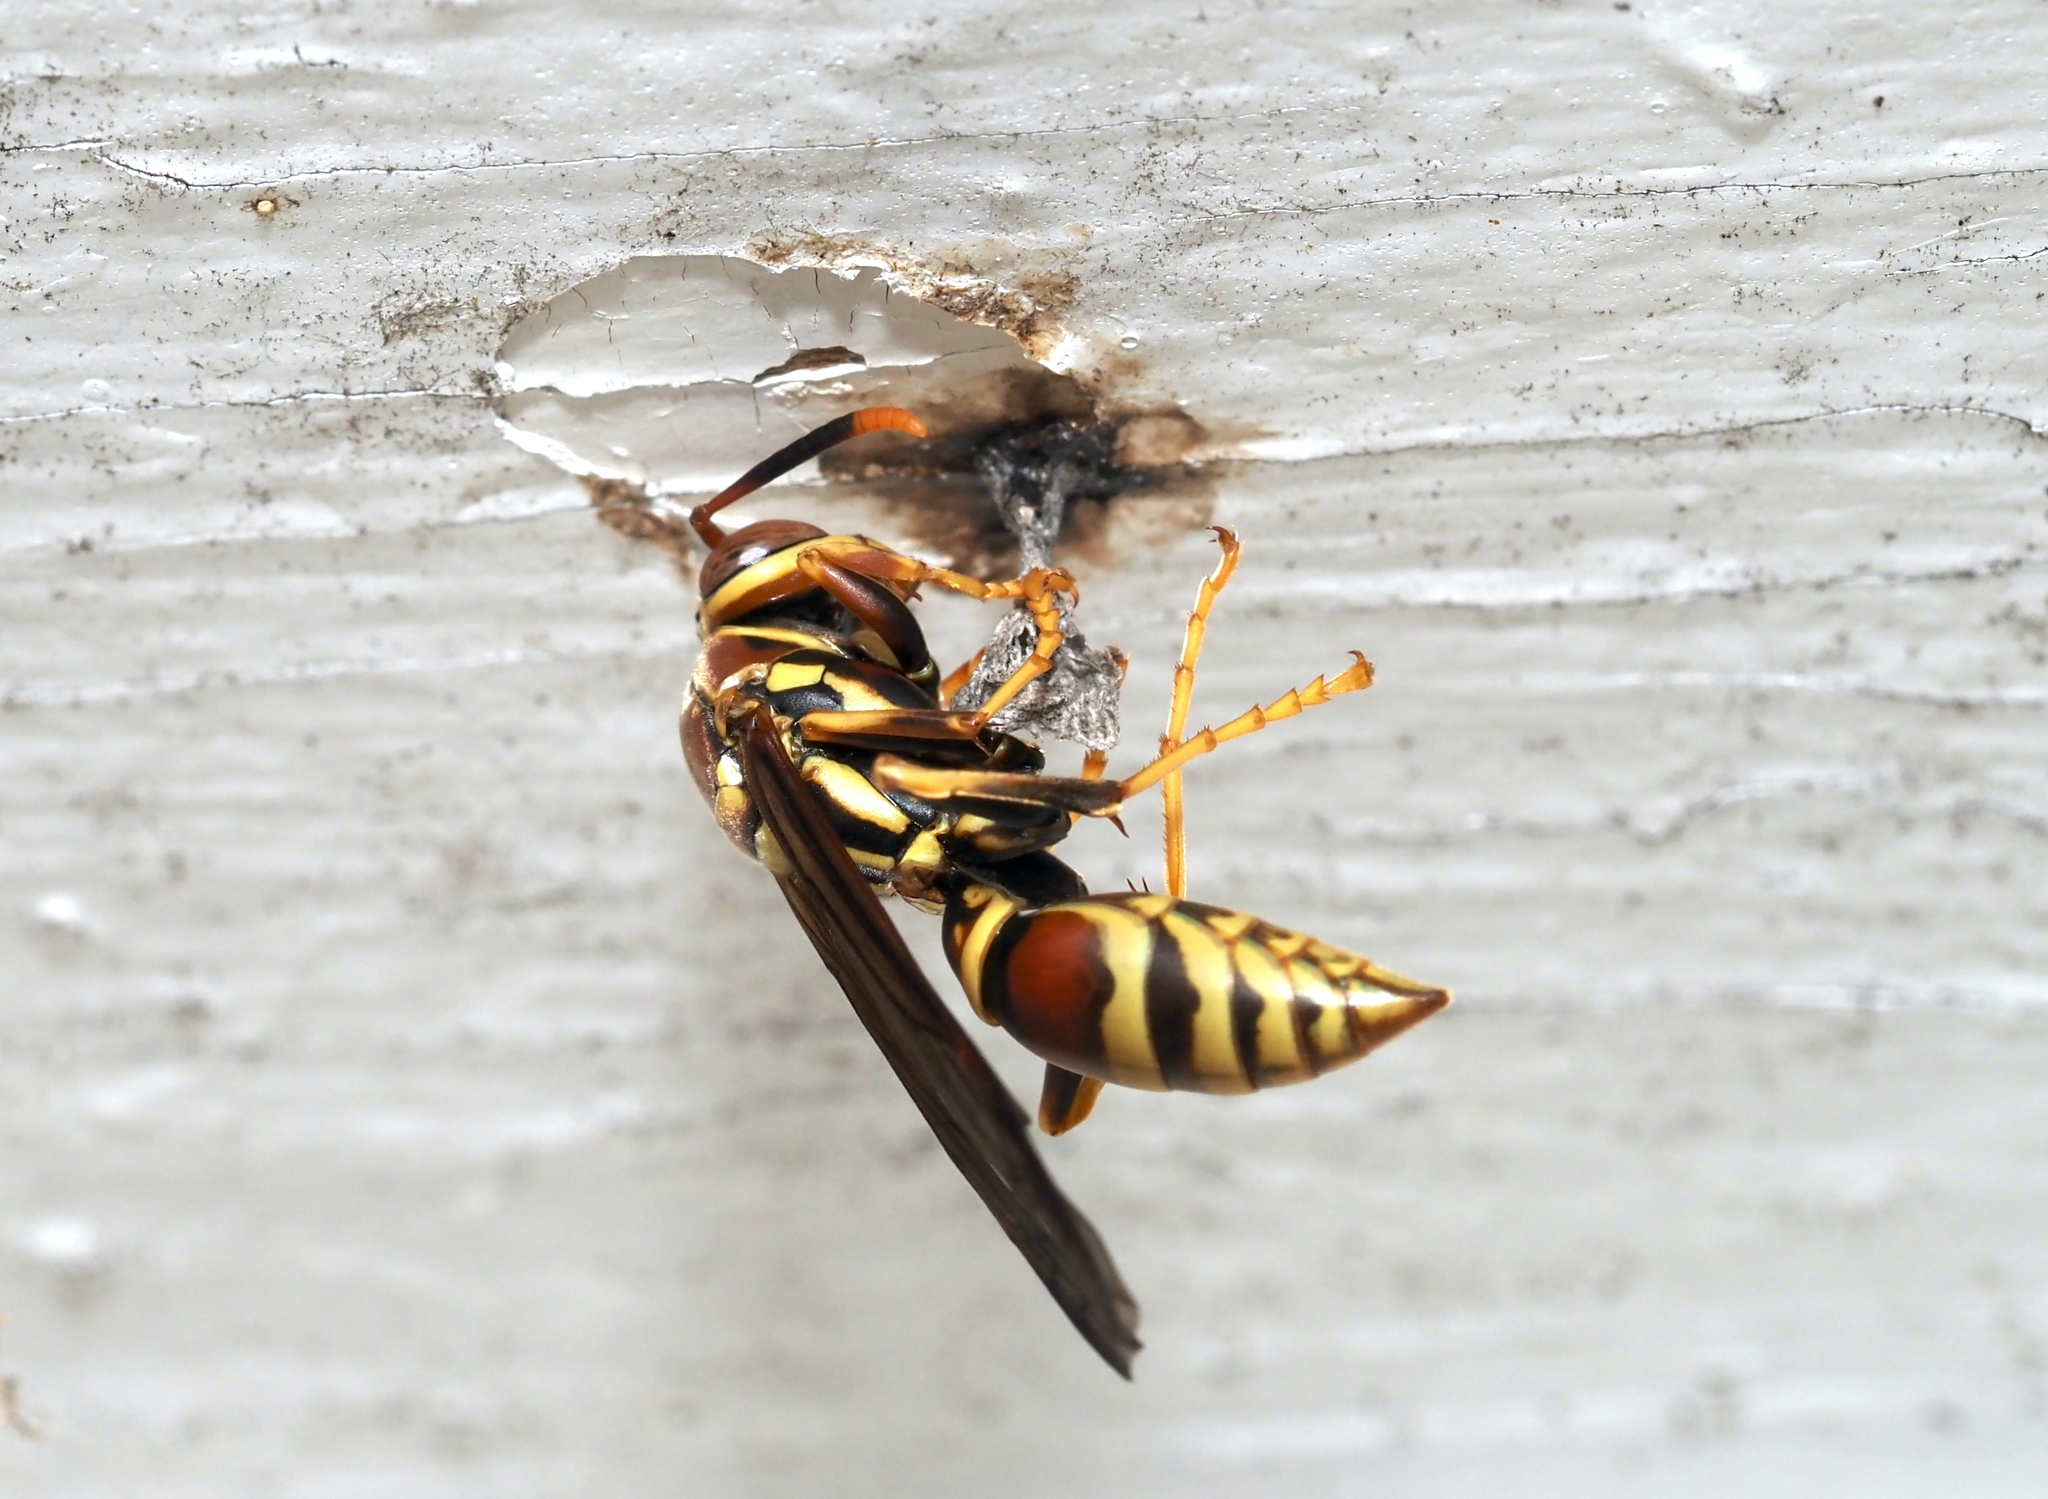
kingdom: Animalia
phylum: Arthropoda
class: Insecta
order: Hymenoptera
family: Eumenidae
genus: Polistes
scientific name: Polistes exclamans
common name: Paper wasp
